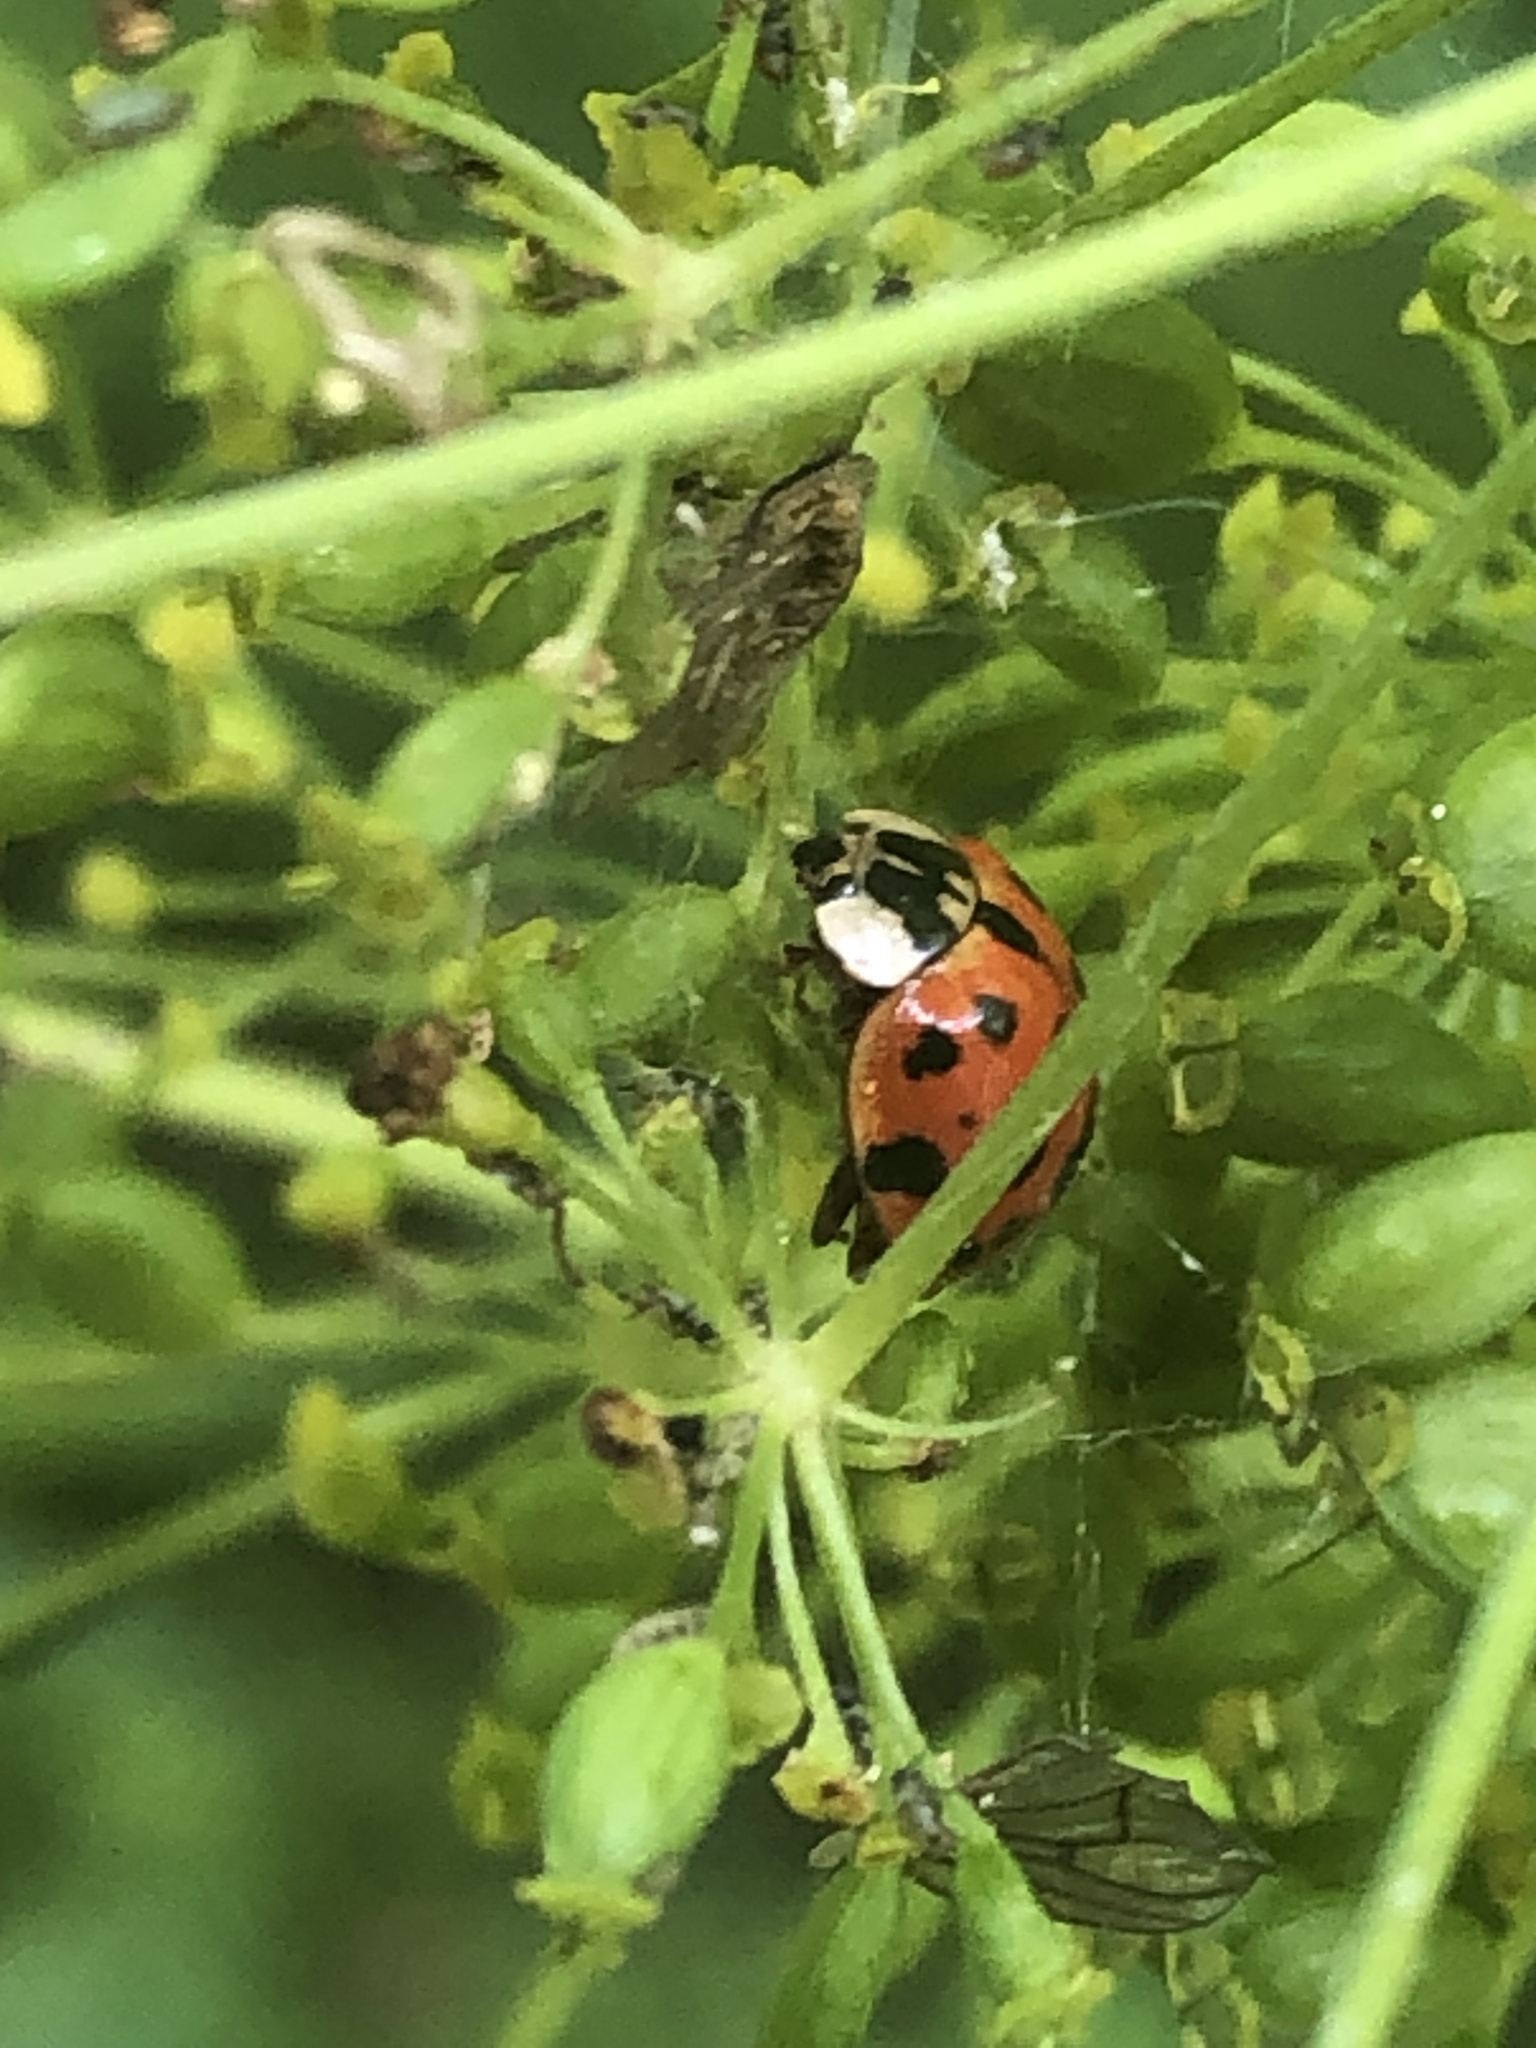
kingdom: Animalia
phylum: Arthropoda
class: Insecta
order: Coleoptera
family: Coccinellidae
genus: Harmonia
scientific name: Harmonia axyridis
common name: Harlequin ladybird
